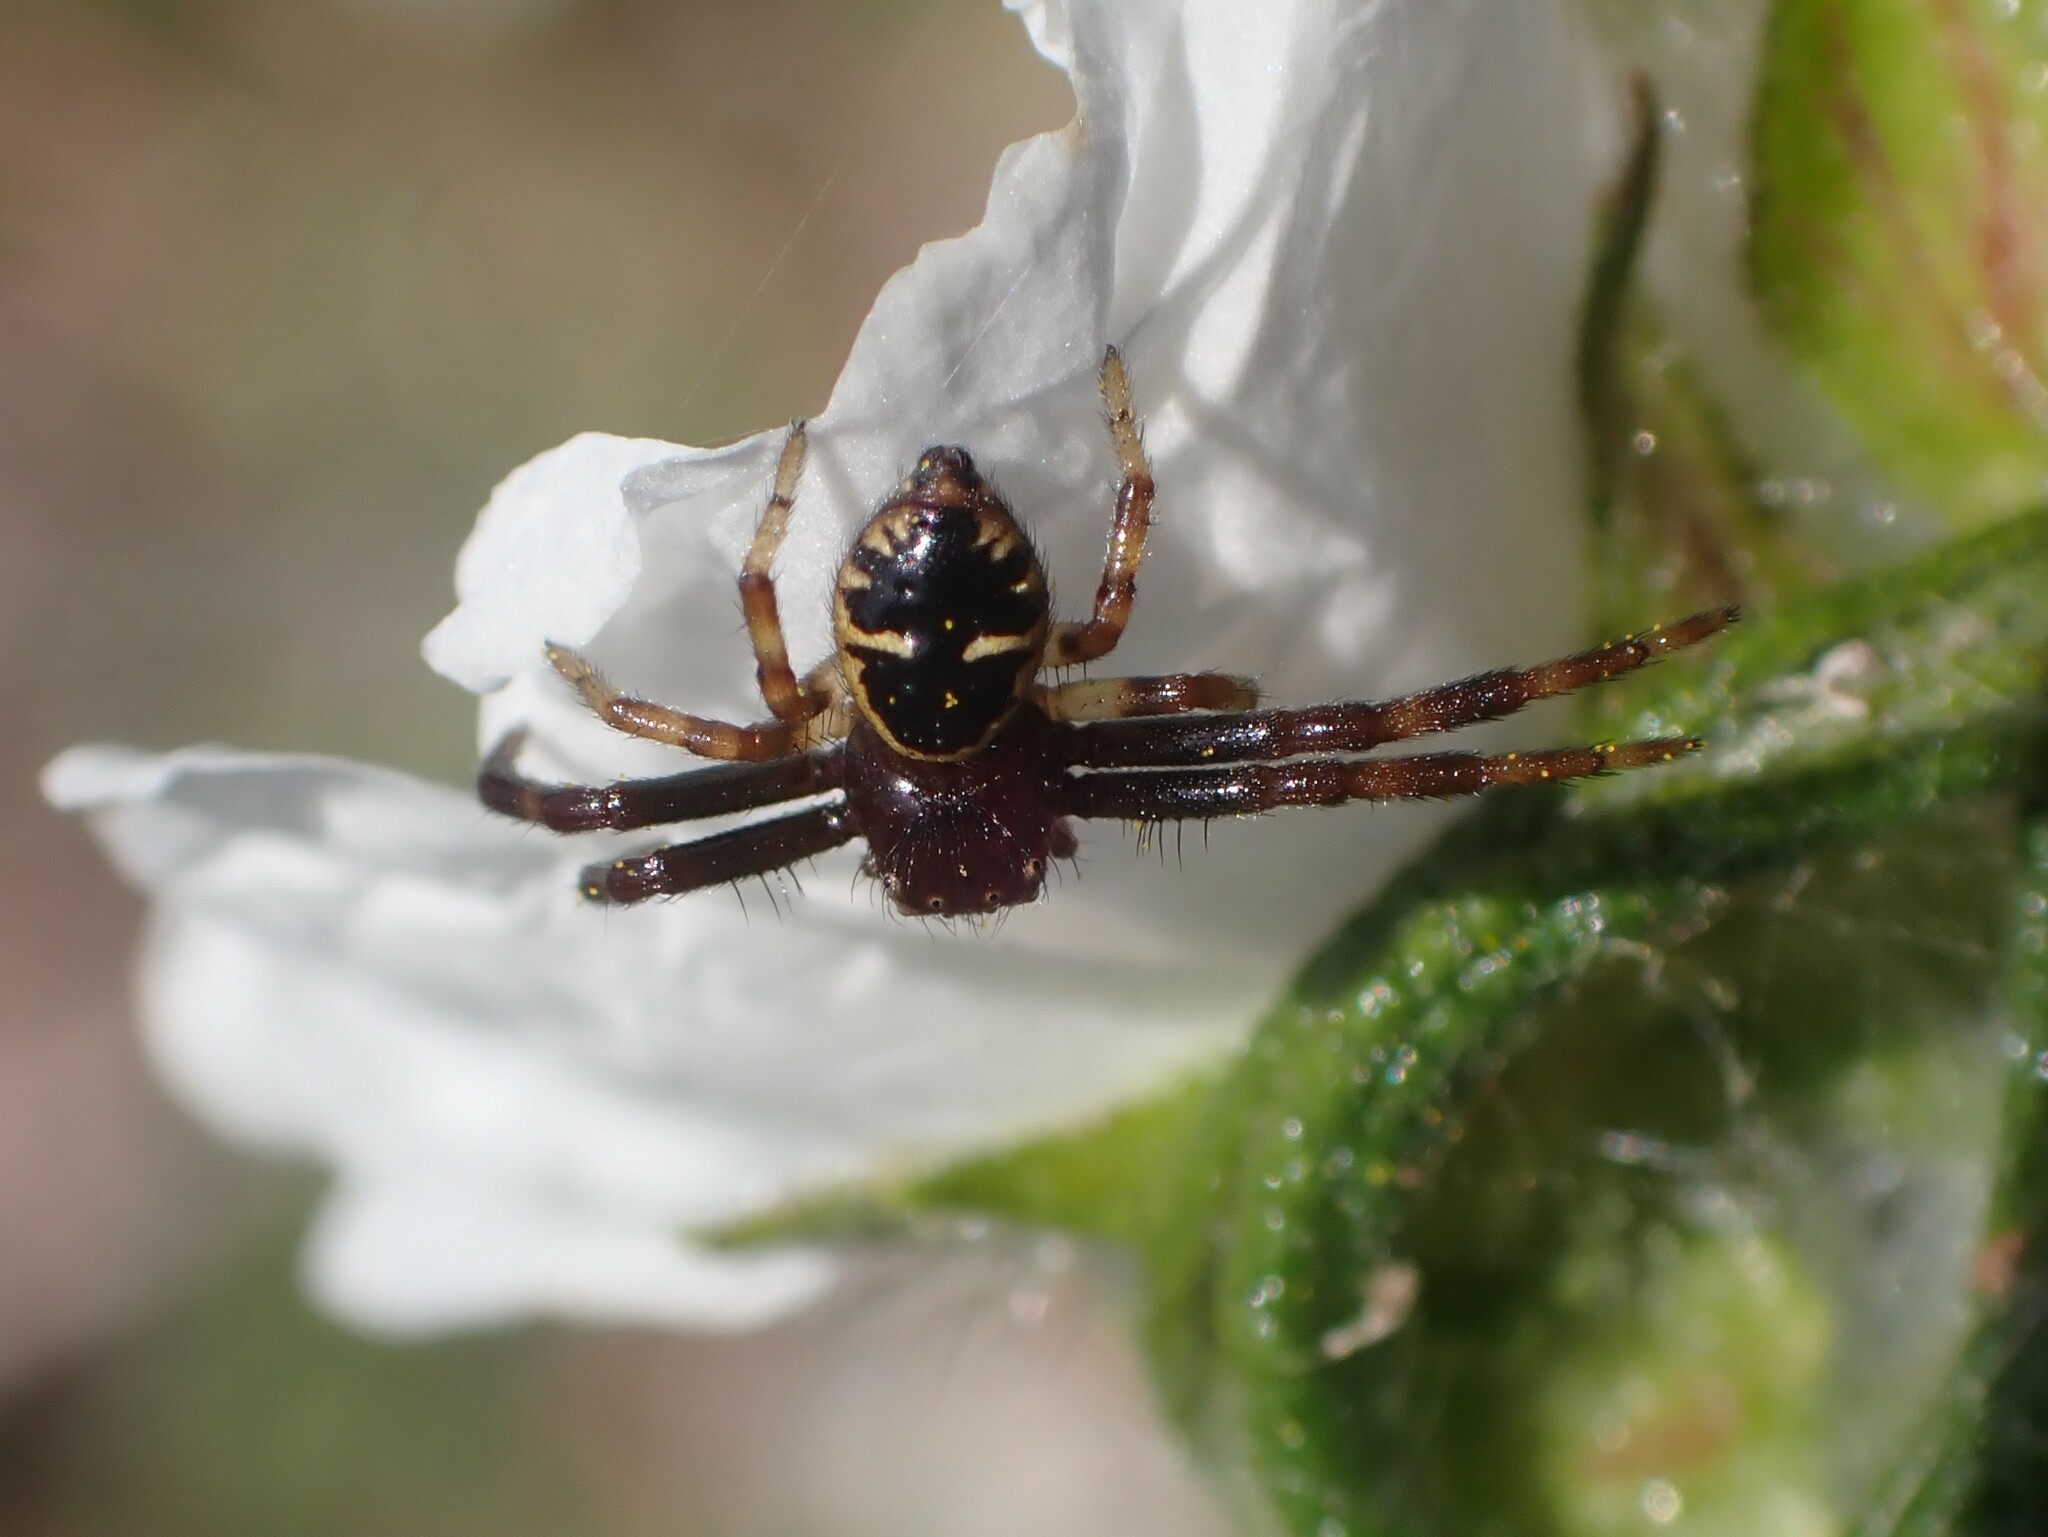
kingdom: Animalia
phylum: Arthropoda
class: Arachnida
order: Araneae
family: Thomisidae
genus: Synema
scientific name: Synema globosum
